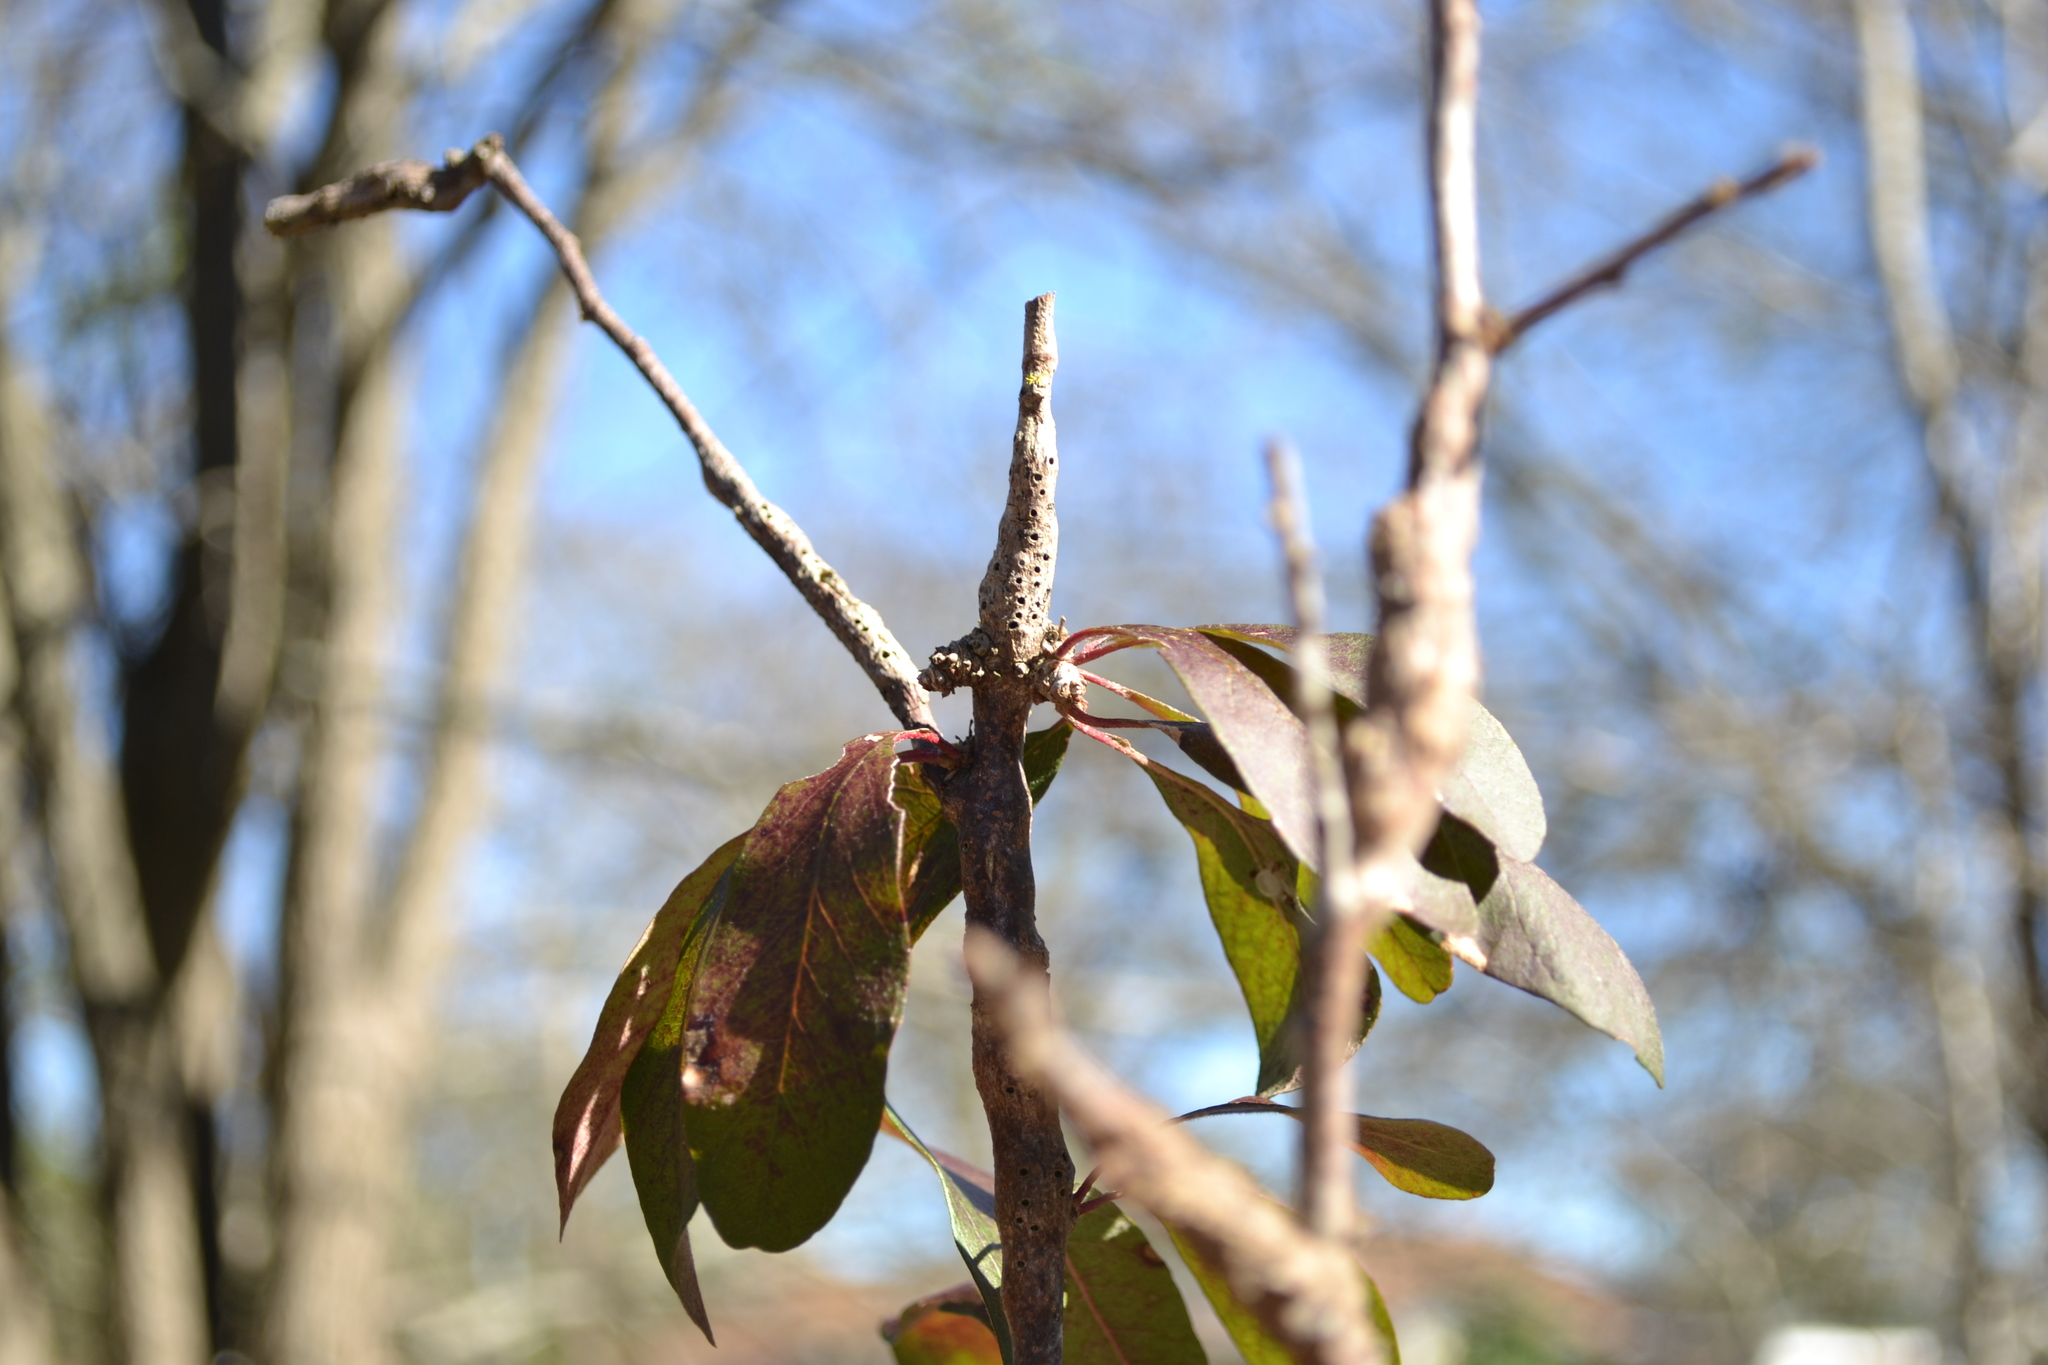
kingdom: Animalia
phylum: Arthropoda
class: Insecta
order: Diptera
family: Cecidomyiidae
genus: Bruggmanniella
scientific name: Bruggmanniella bumeliae
